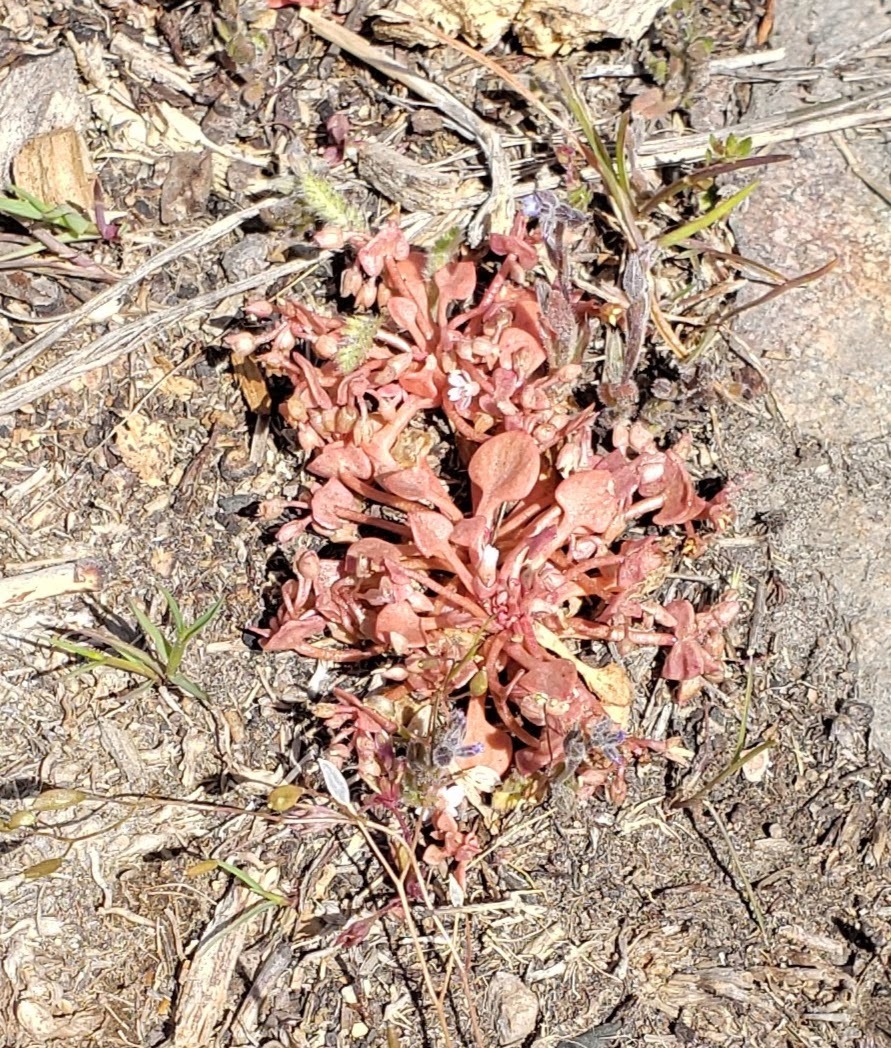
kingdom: Plantae
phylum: Tracheophyta
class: Magnoliopsida
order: Caryophyllales
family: Montiaceae
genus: Claytonia
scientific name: Claytonia rubra
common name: Erubescent miner's-lettuce
